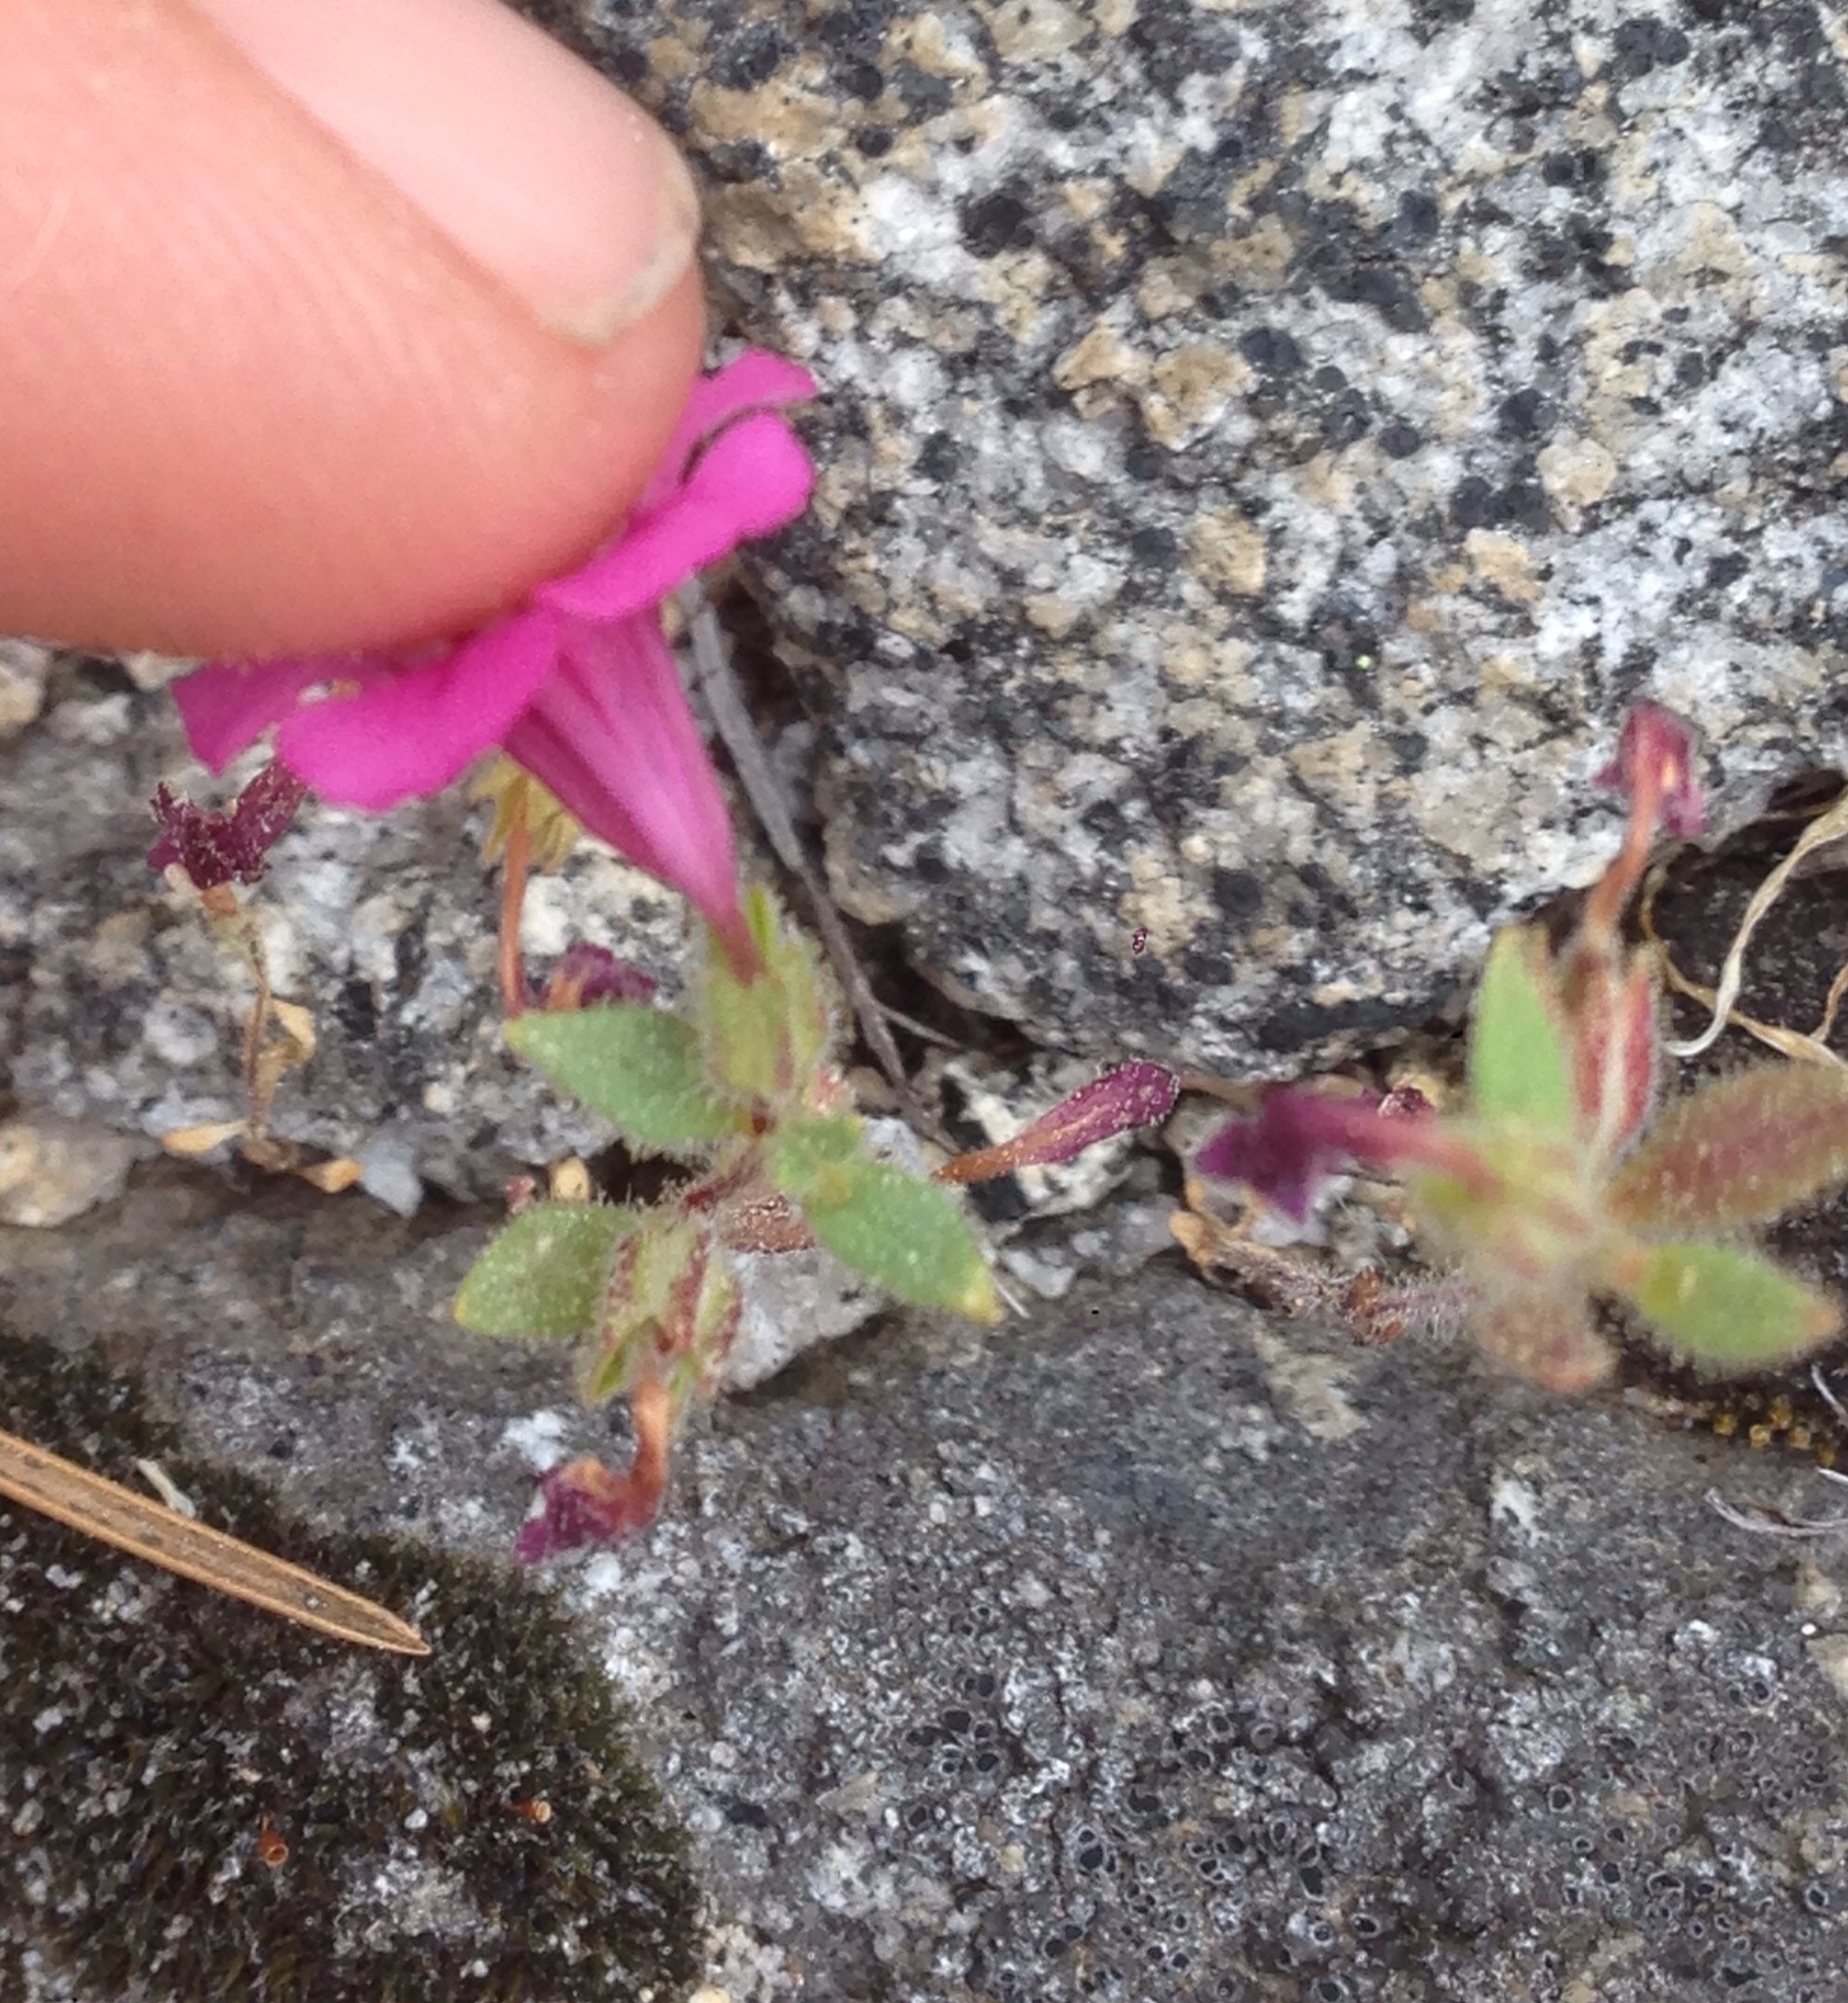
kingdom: Plantae
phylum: Tracheophyta
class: Magnoliopsida
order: Lamiales
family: Phrymaceae
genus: Diplacus
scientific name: Diplacus torreyi
